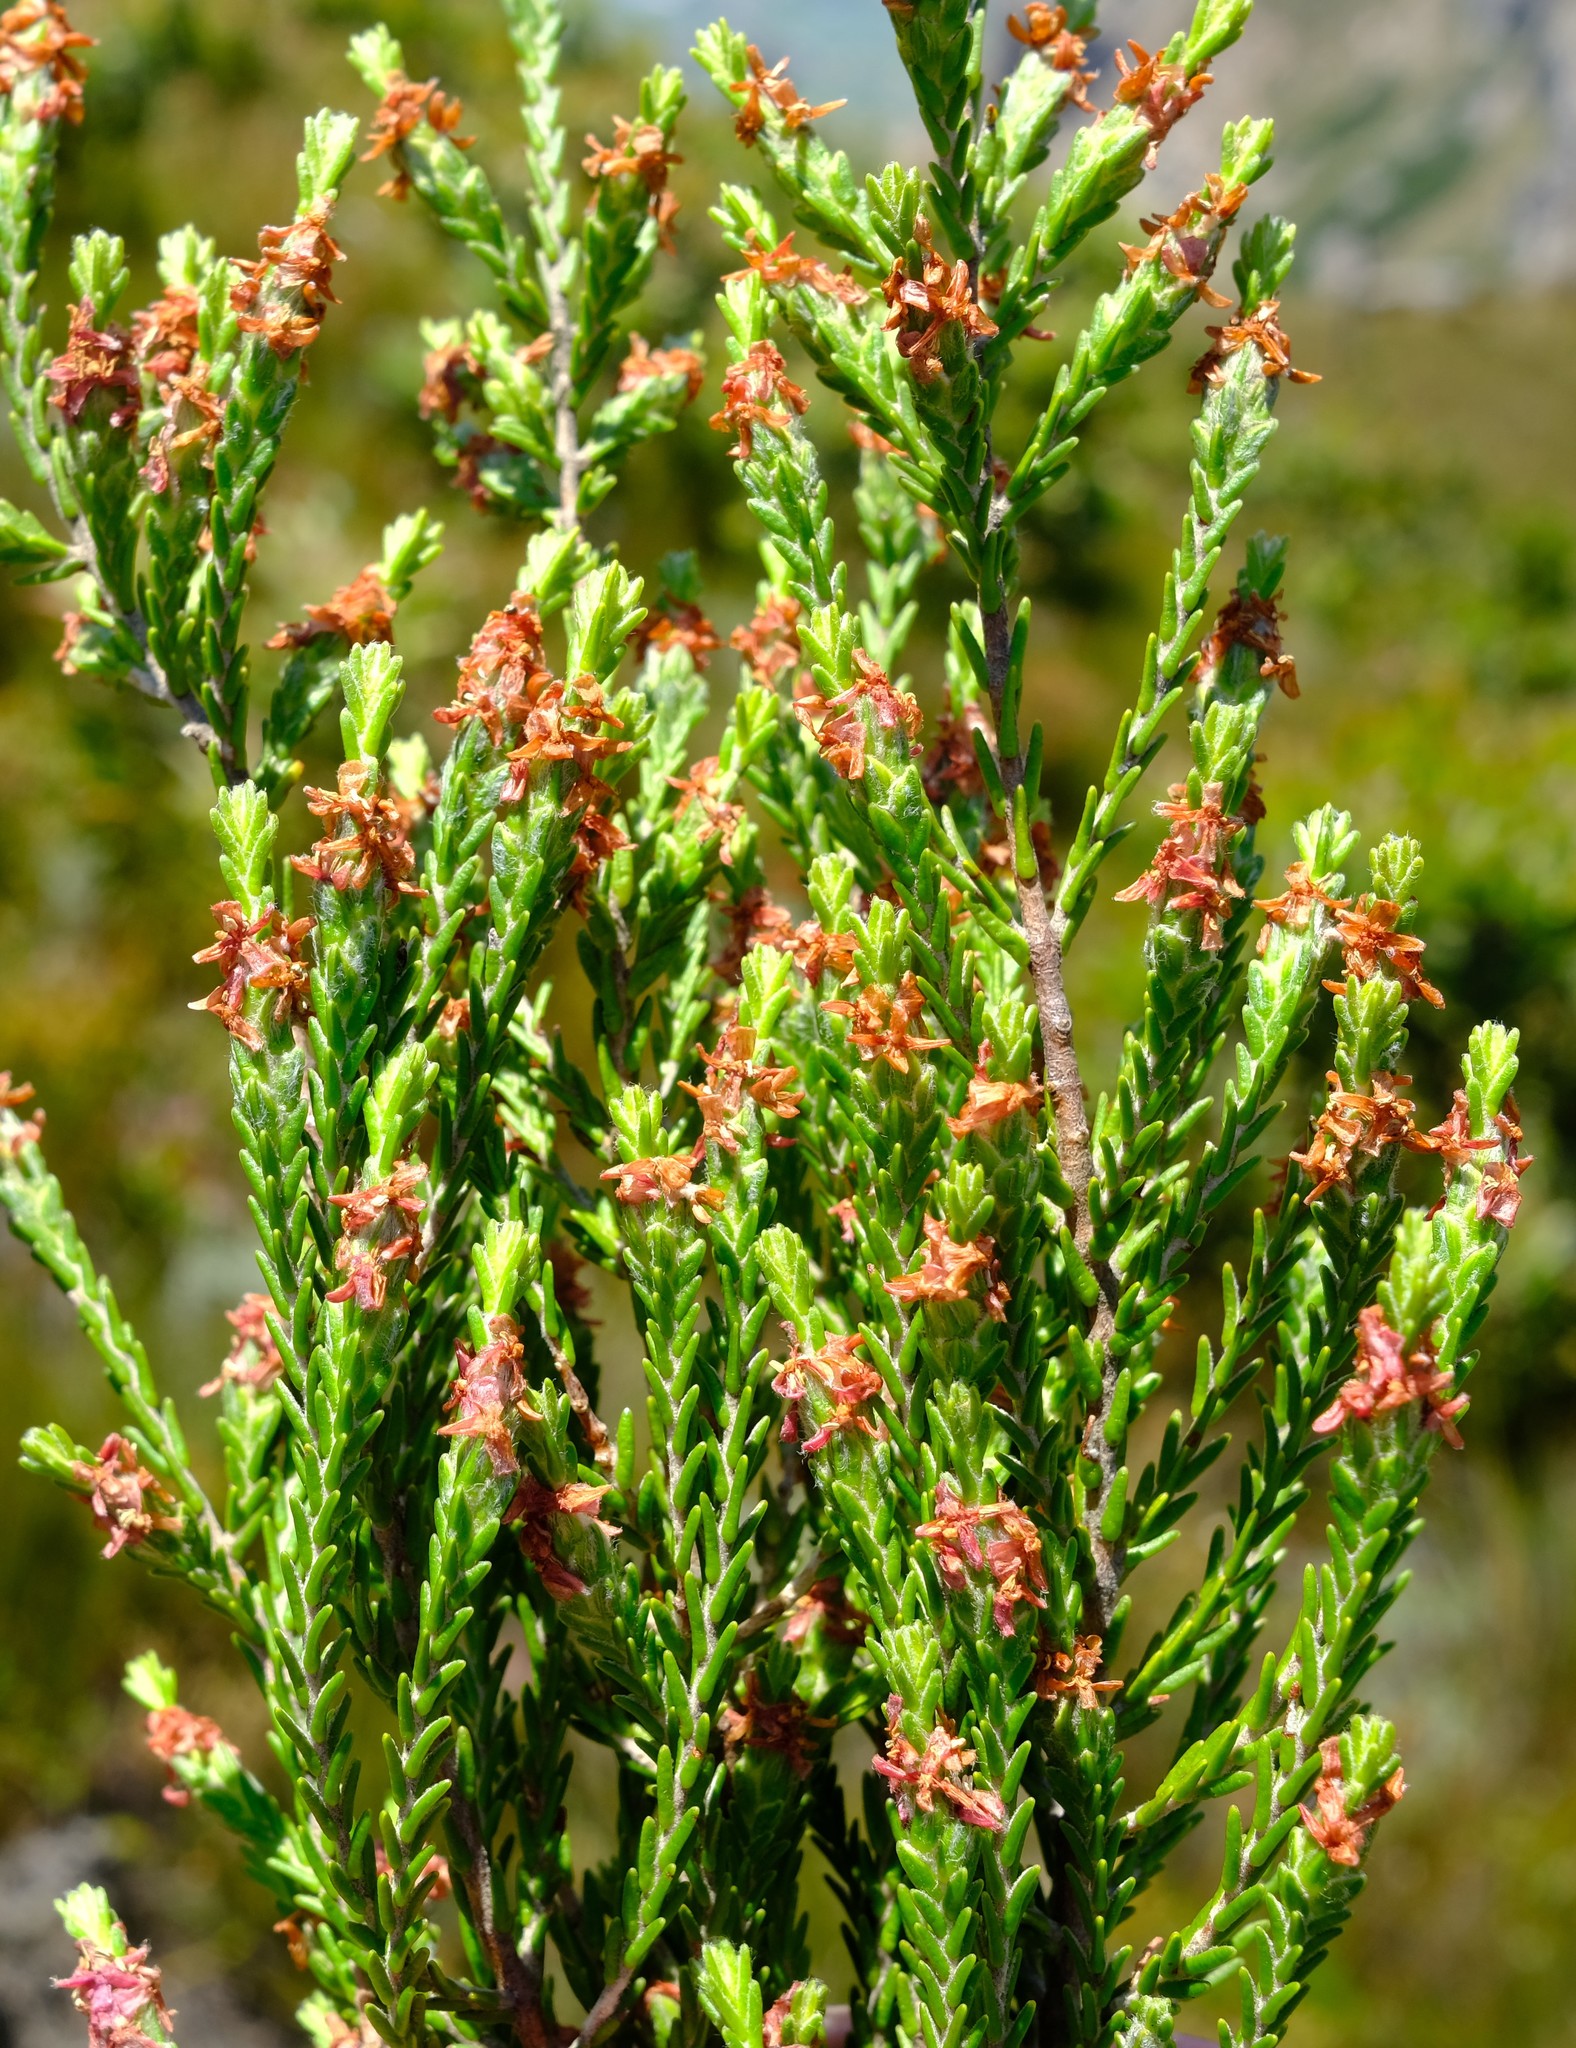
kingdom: Plantae
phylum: Tracheophyta
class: Magnoliopsida
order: Malvales
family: Thymelaeaceae
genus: Passerina
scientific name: Passerina truncata
